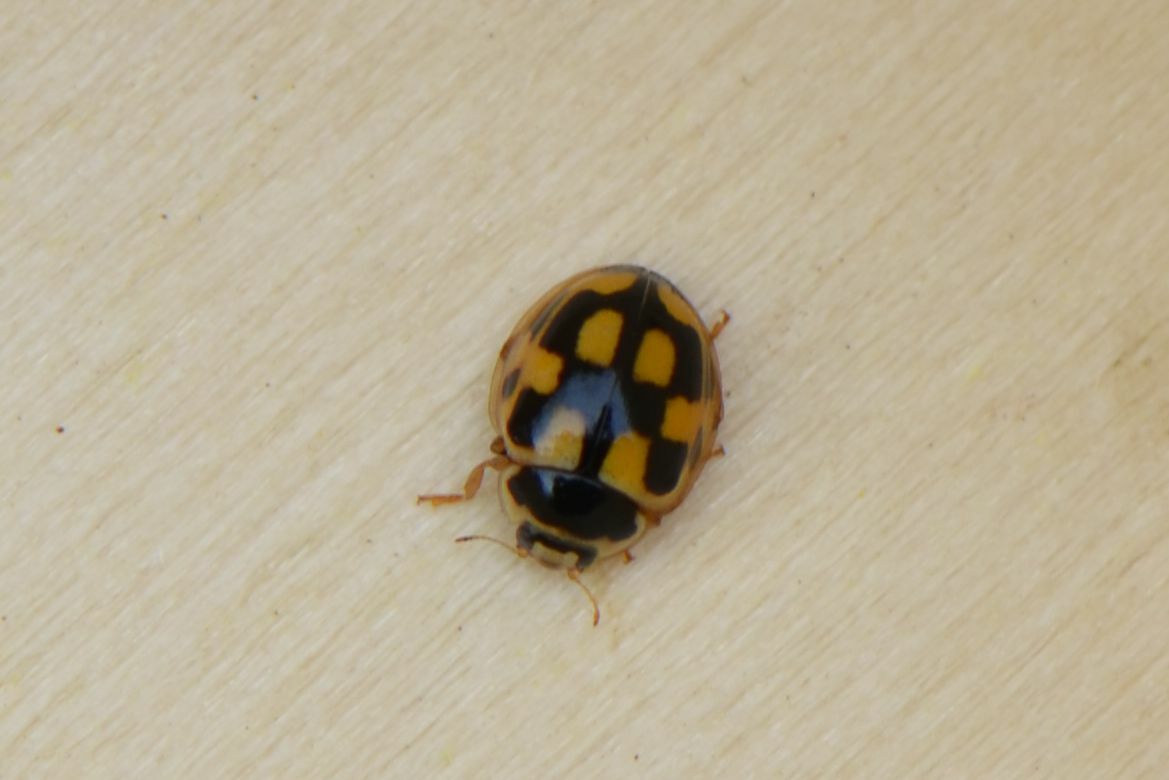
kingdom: Animalia
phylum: Arthropoda
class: Insecta
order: Coleoptera
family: Coccinellidae
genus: Propylaea
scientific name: Propylaea quatuordecimpunctata
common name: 14-spotted ladybird beetle
